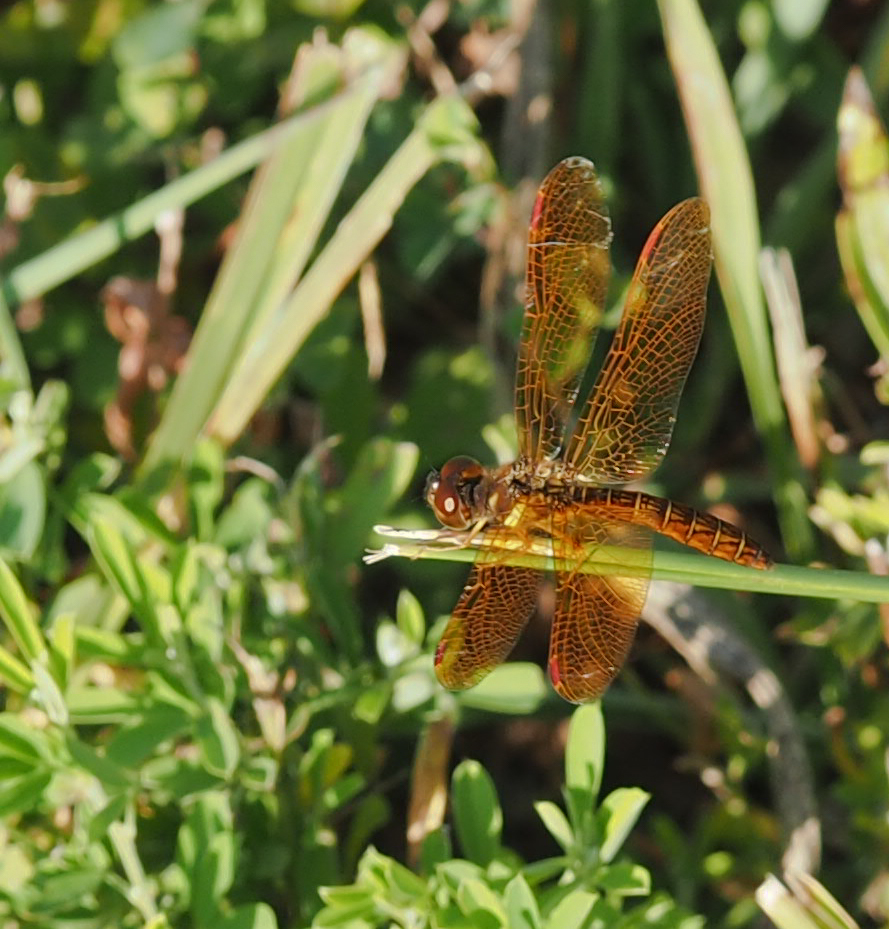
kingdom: Animalia
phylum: Arthropoda
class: Insecta
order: Odonata
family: Libellulidae
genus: Perithemis
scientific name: Perithemis tenera
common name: Eastern amberwing
